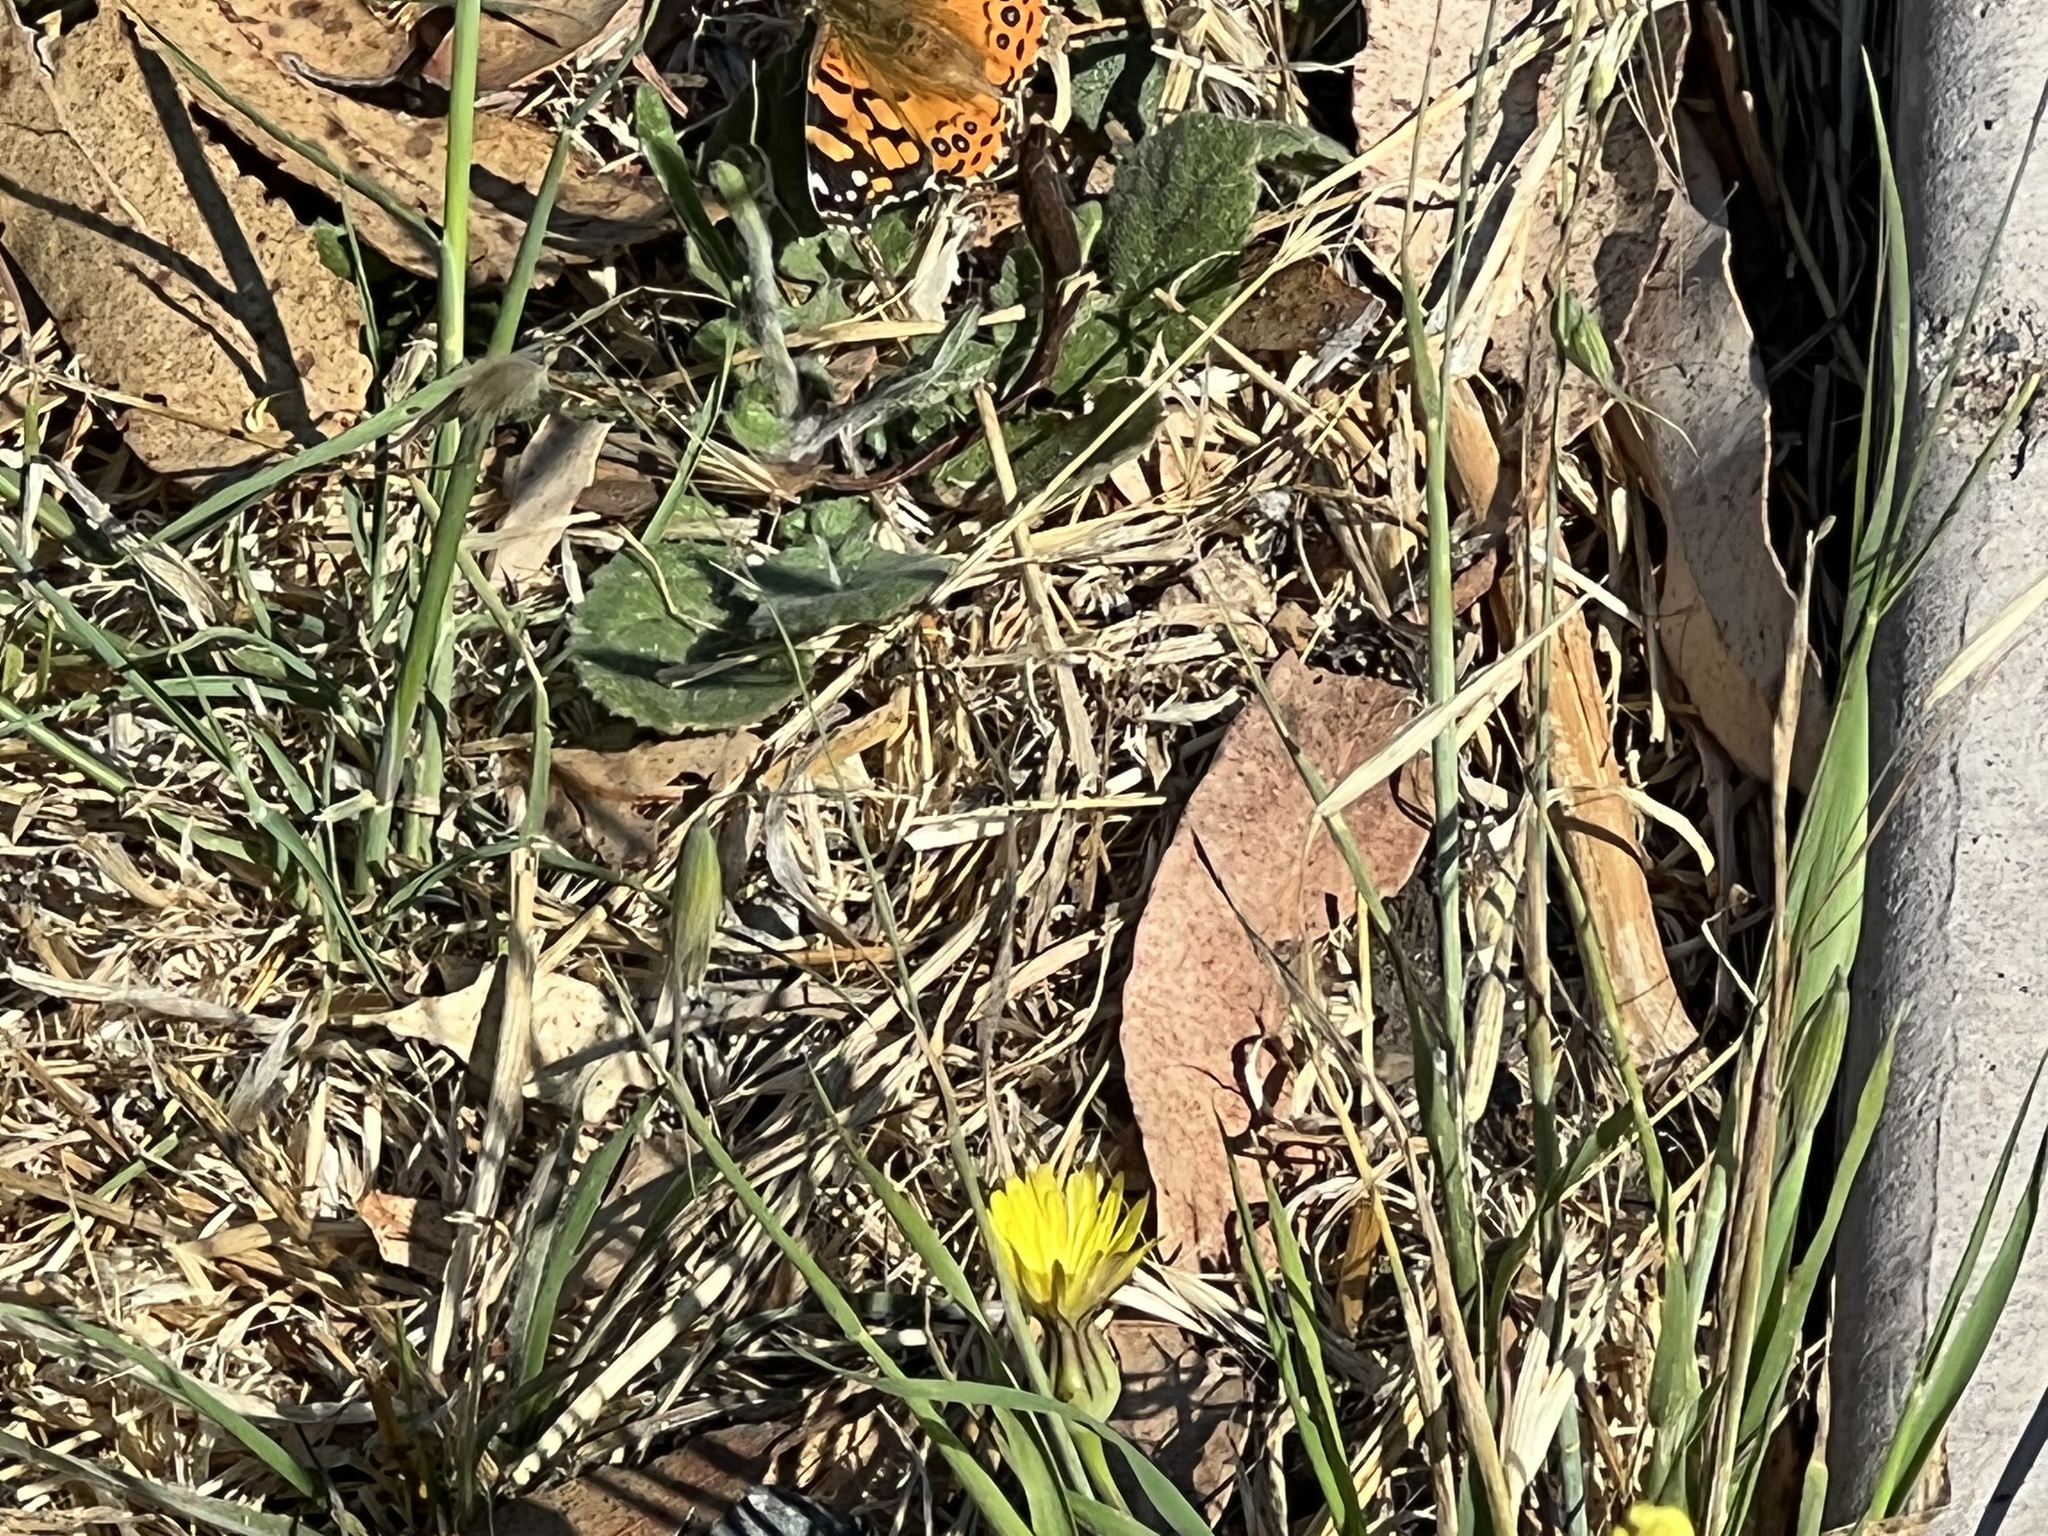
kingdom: Animalia
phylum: Arthropoda
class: Insecta
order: Lepidoptera
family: Nymphalidae
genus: Vanessa
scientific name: Vanessa annabella
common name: West coast lady
